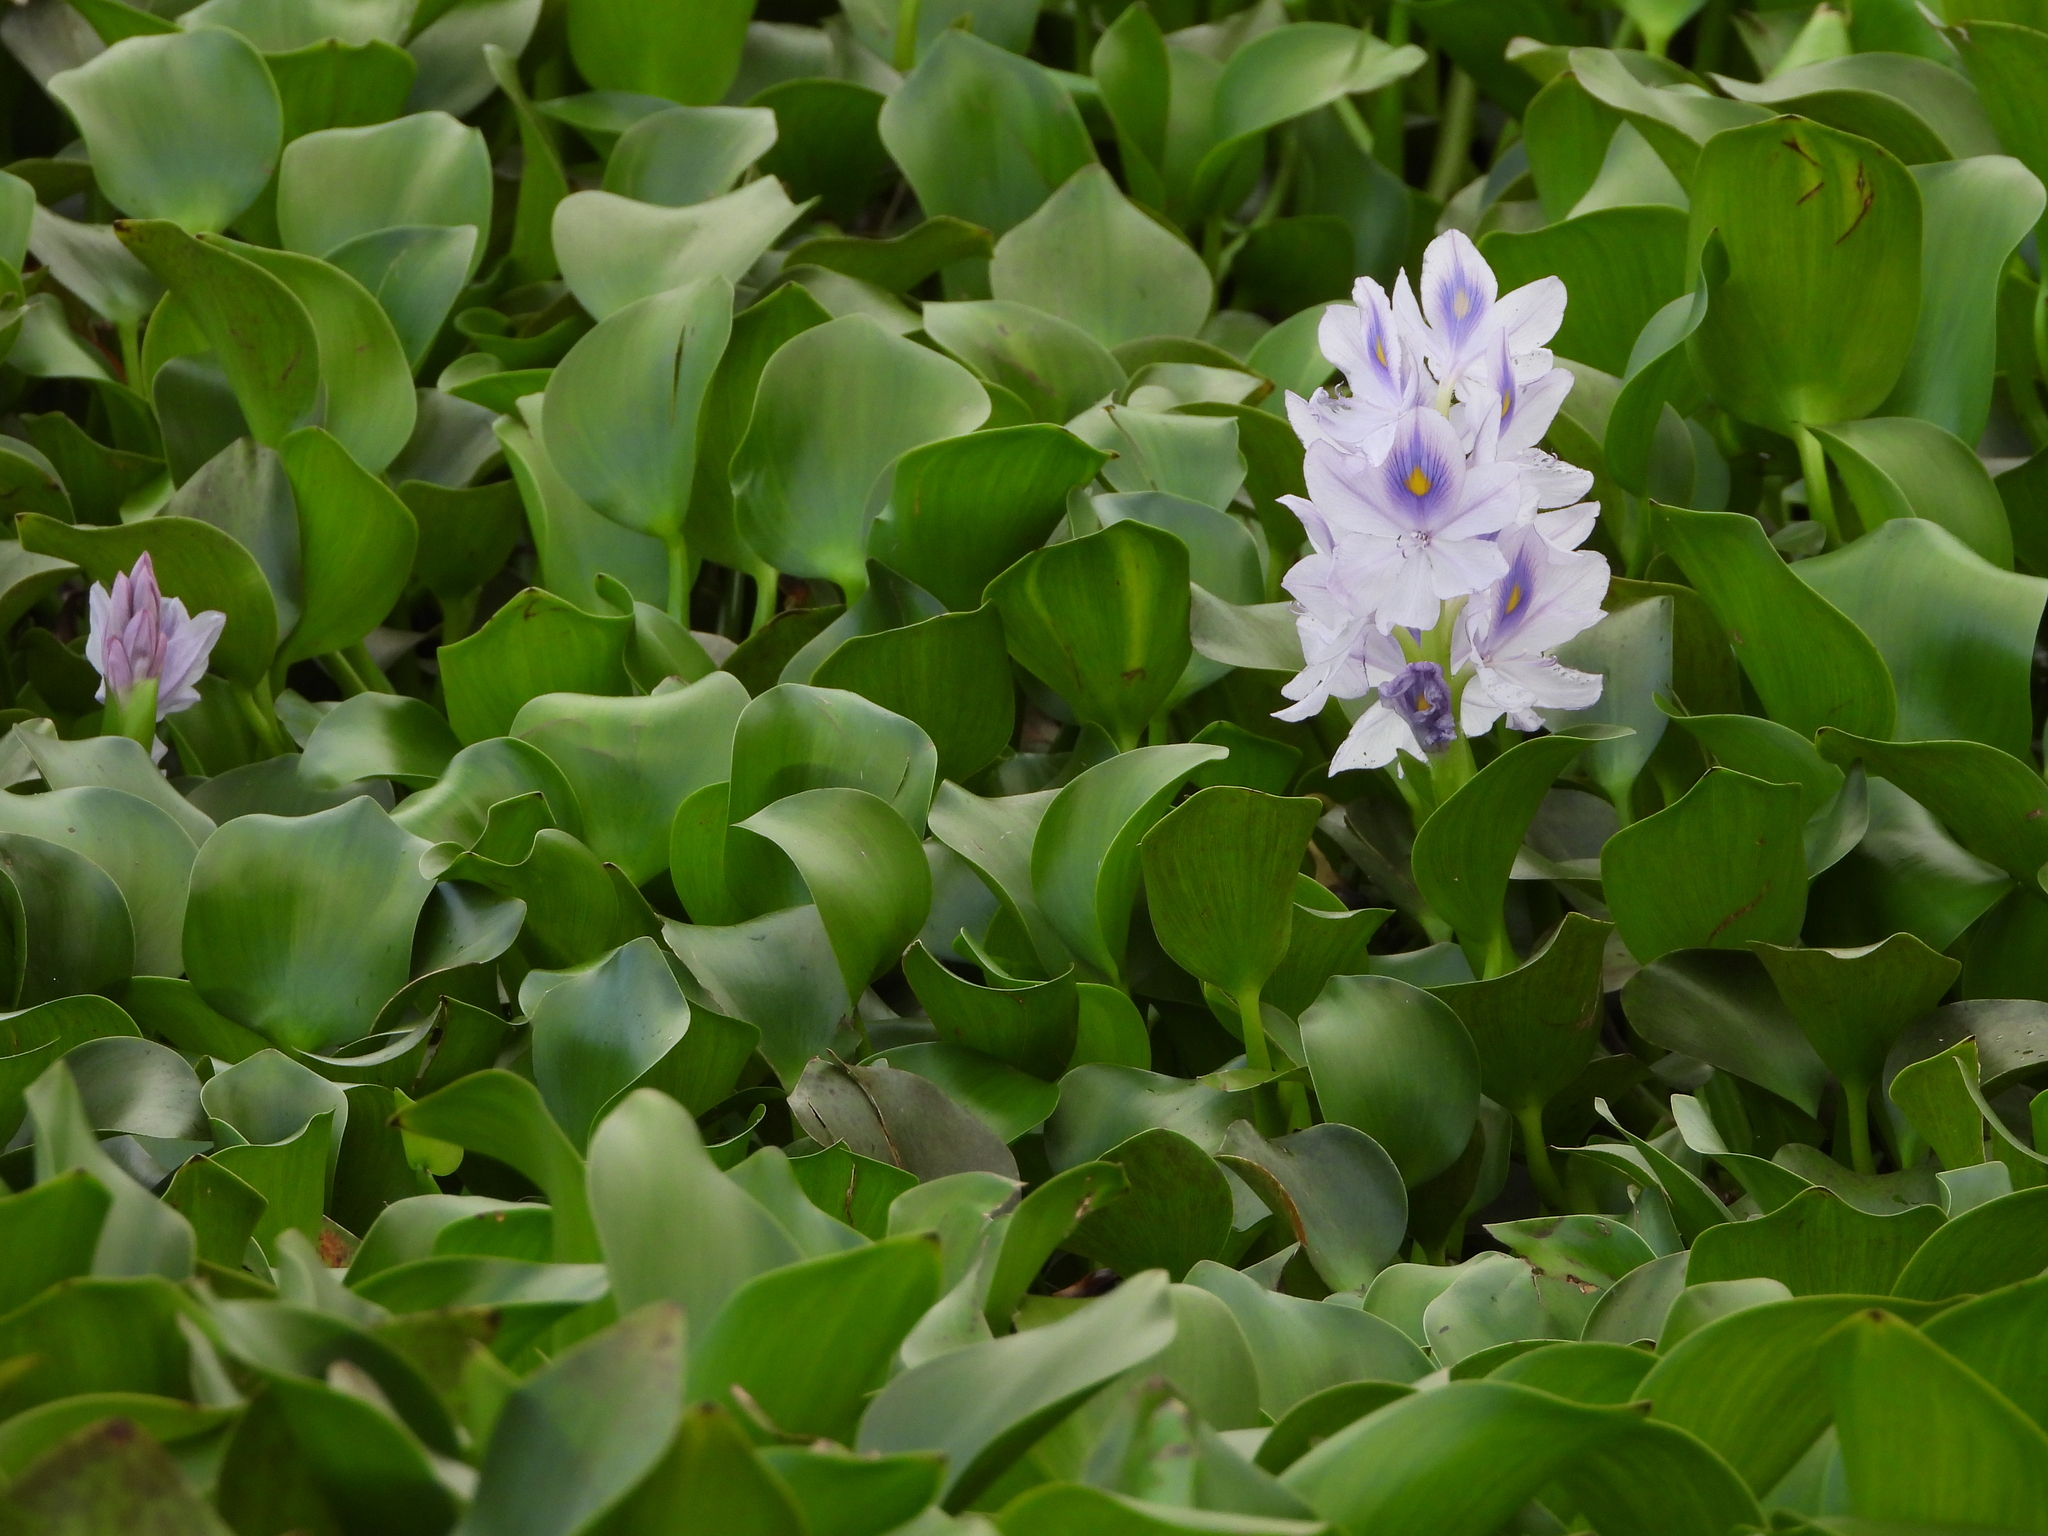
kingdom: Plantae
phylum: Tracheophyta
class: Liliopsida
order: Commelinales
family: Pontederiaceae
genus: Pontederia
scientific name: Pontederia crassipes
